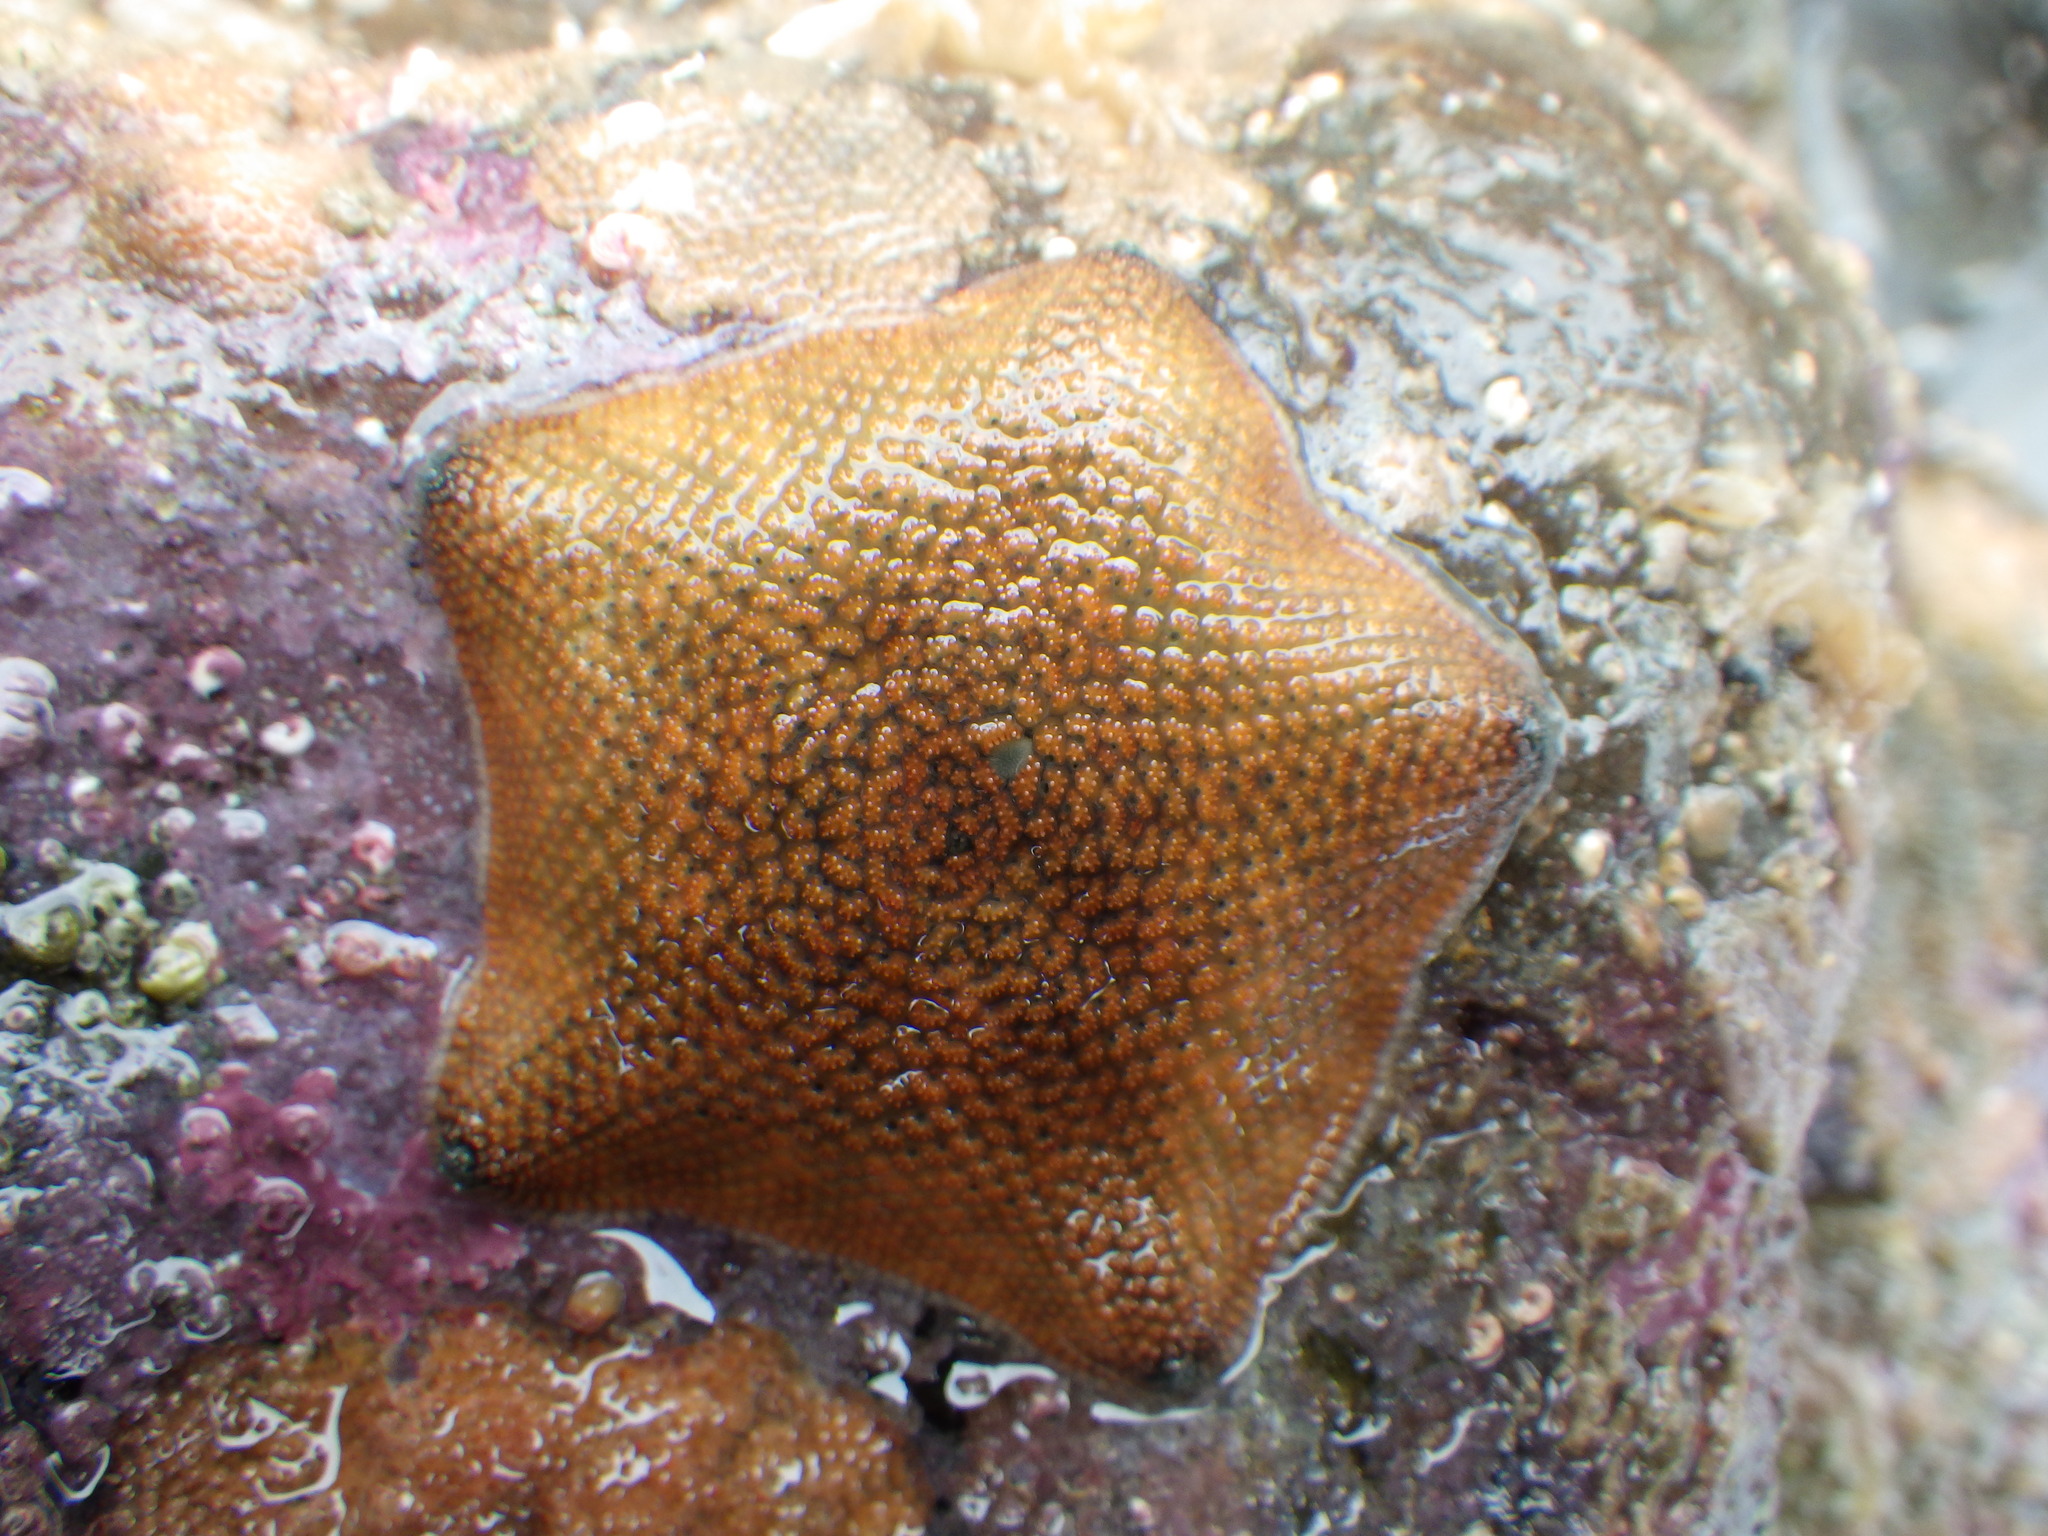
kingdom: Animalia
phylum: Echinodermata
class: Asteroidea
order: Valvatida
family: Asterinidae
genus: Patiriella
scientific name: Patiriella regularis
